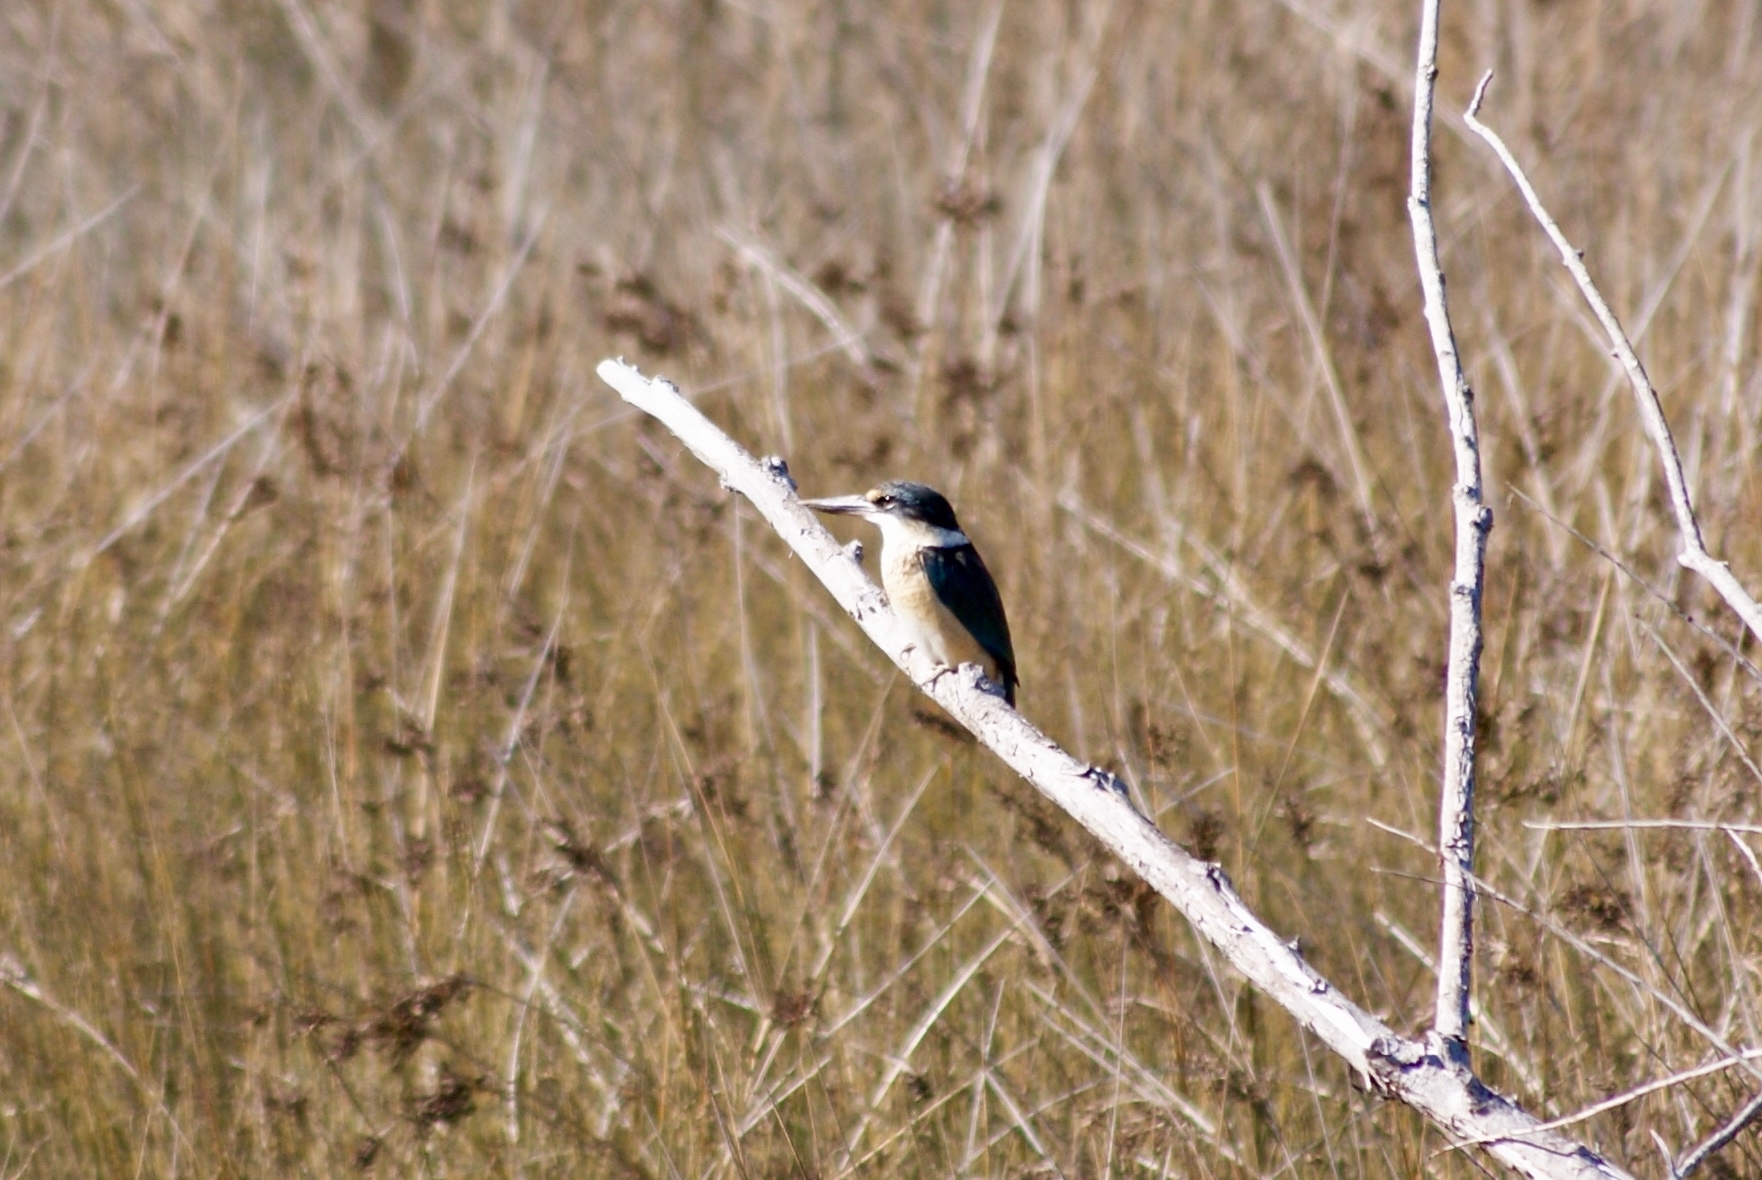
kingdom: Animalia
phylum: Chordata
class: Aves
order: Coraciiformes
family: Alcedinidae
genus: Todiramphus
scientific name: Todiramphus sanctus
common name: Sacred kingfisher
